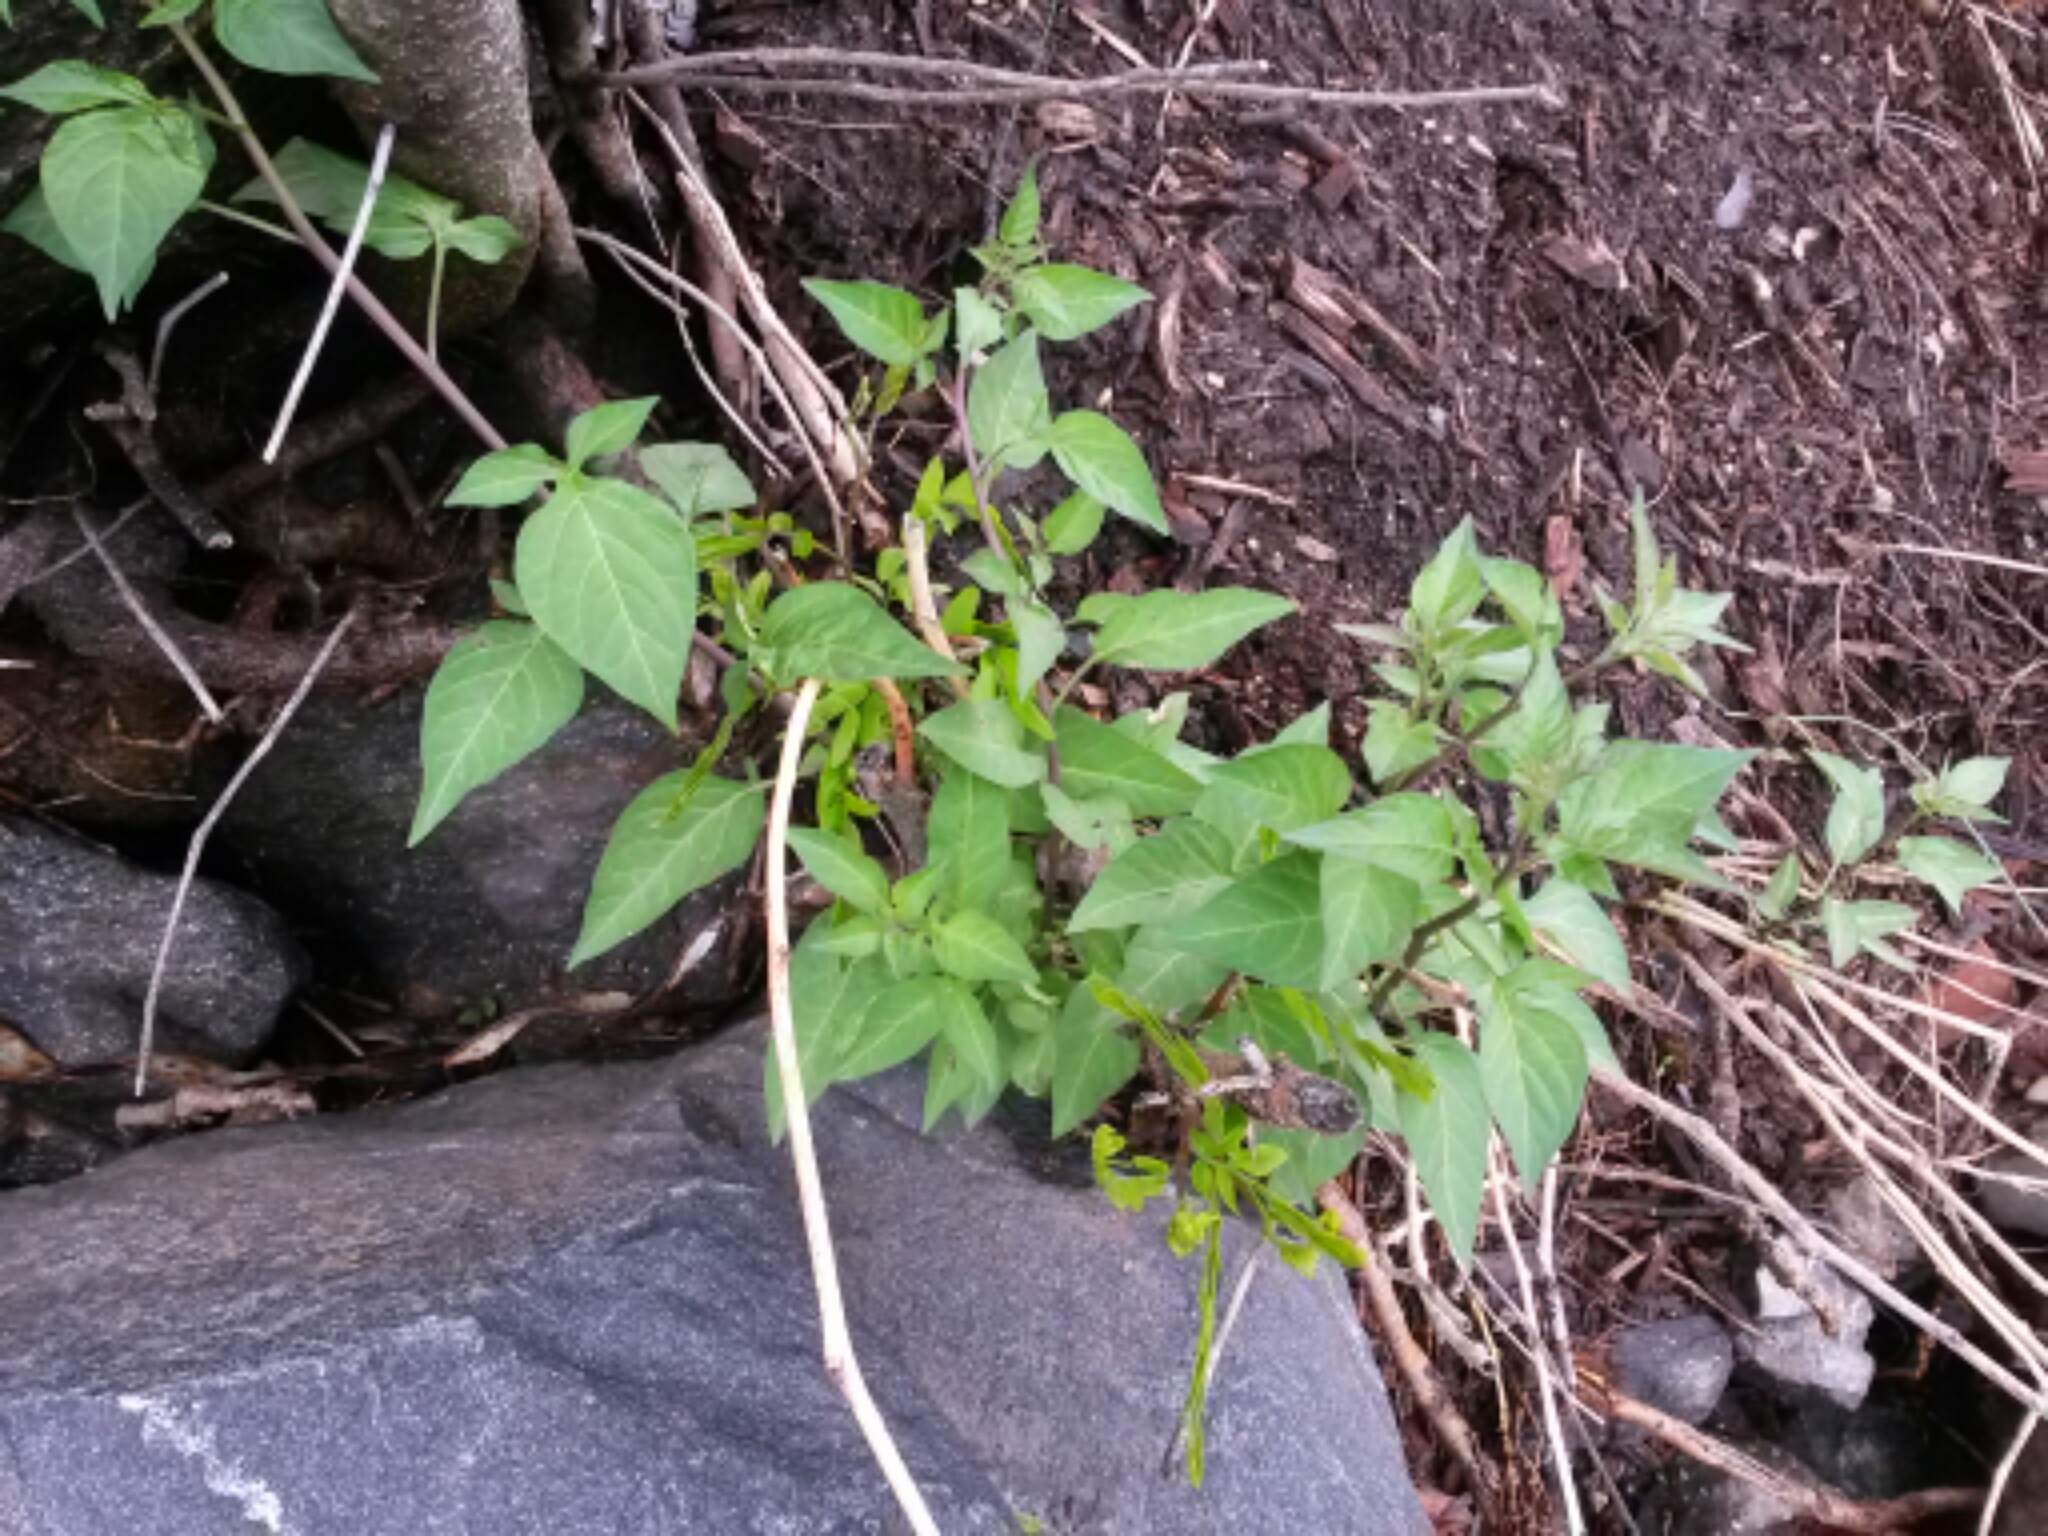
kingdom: Plantae
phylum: Tracheophyta
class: Magnoliopsida
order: Solanales
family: Solanaceae
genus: Solanum
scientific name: Solanum dulcamara
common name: Climbing nightshade
